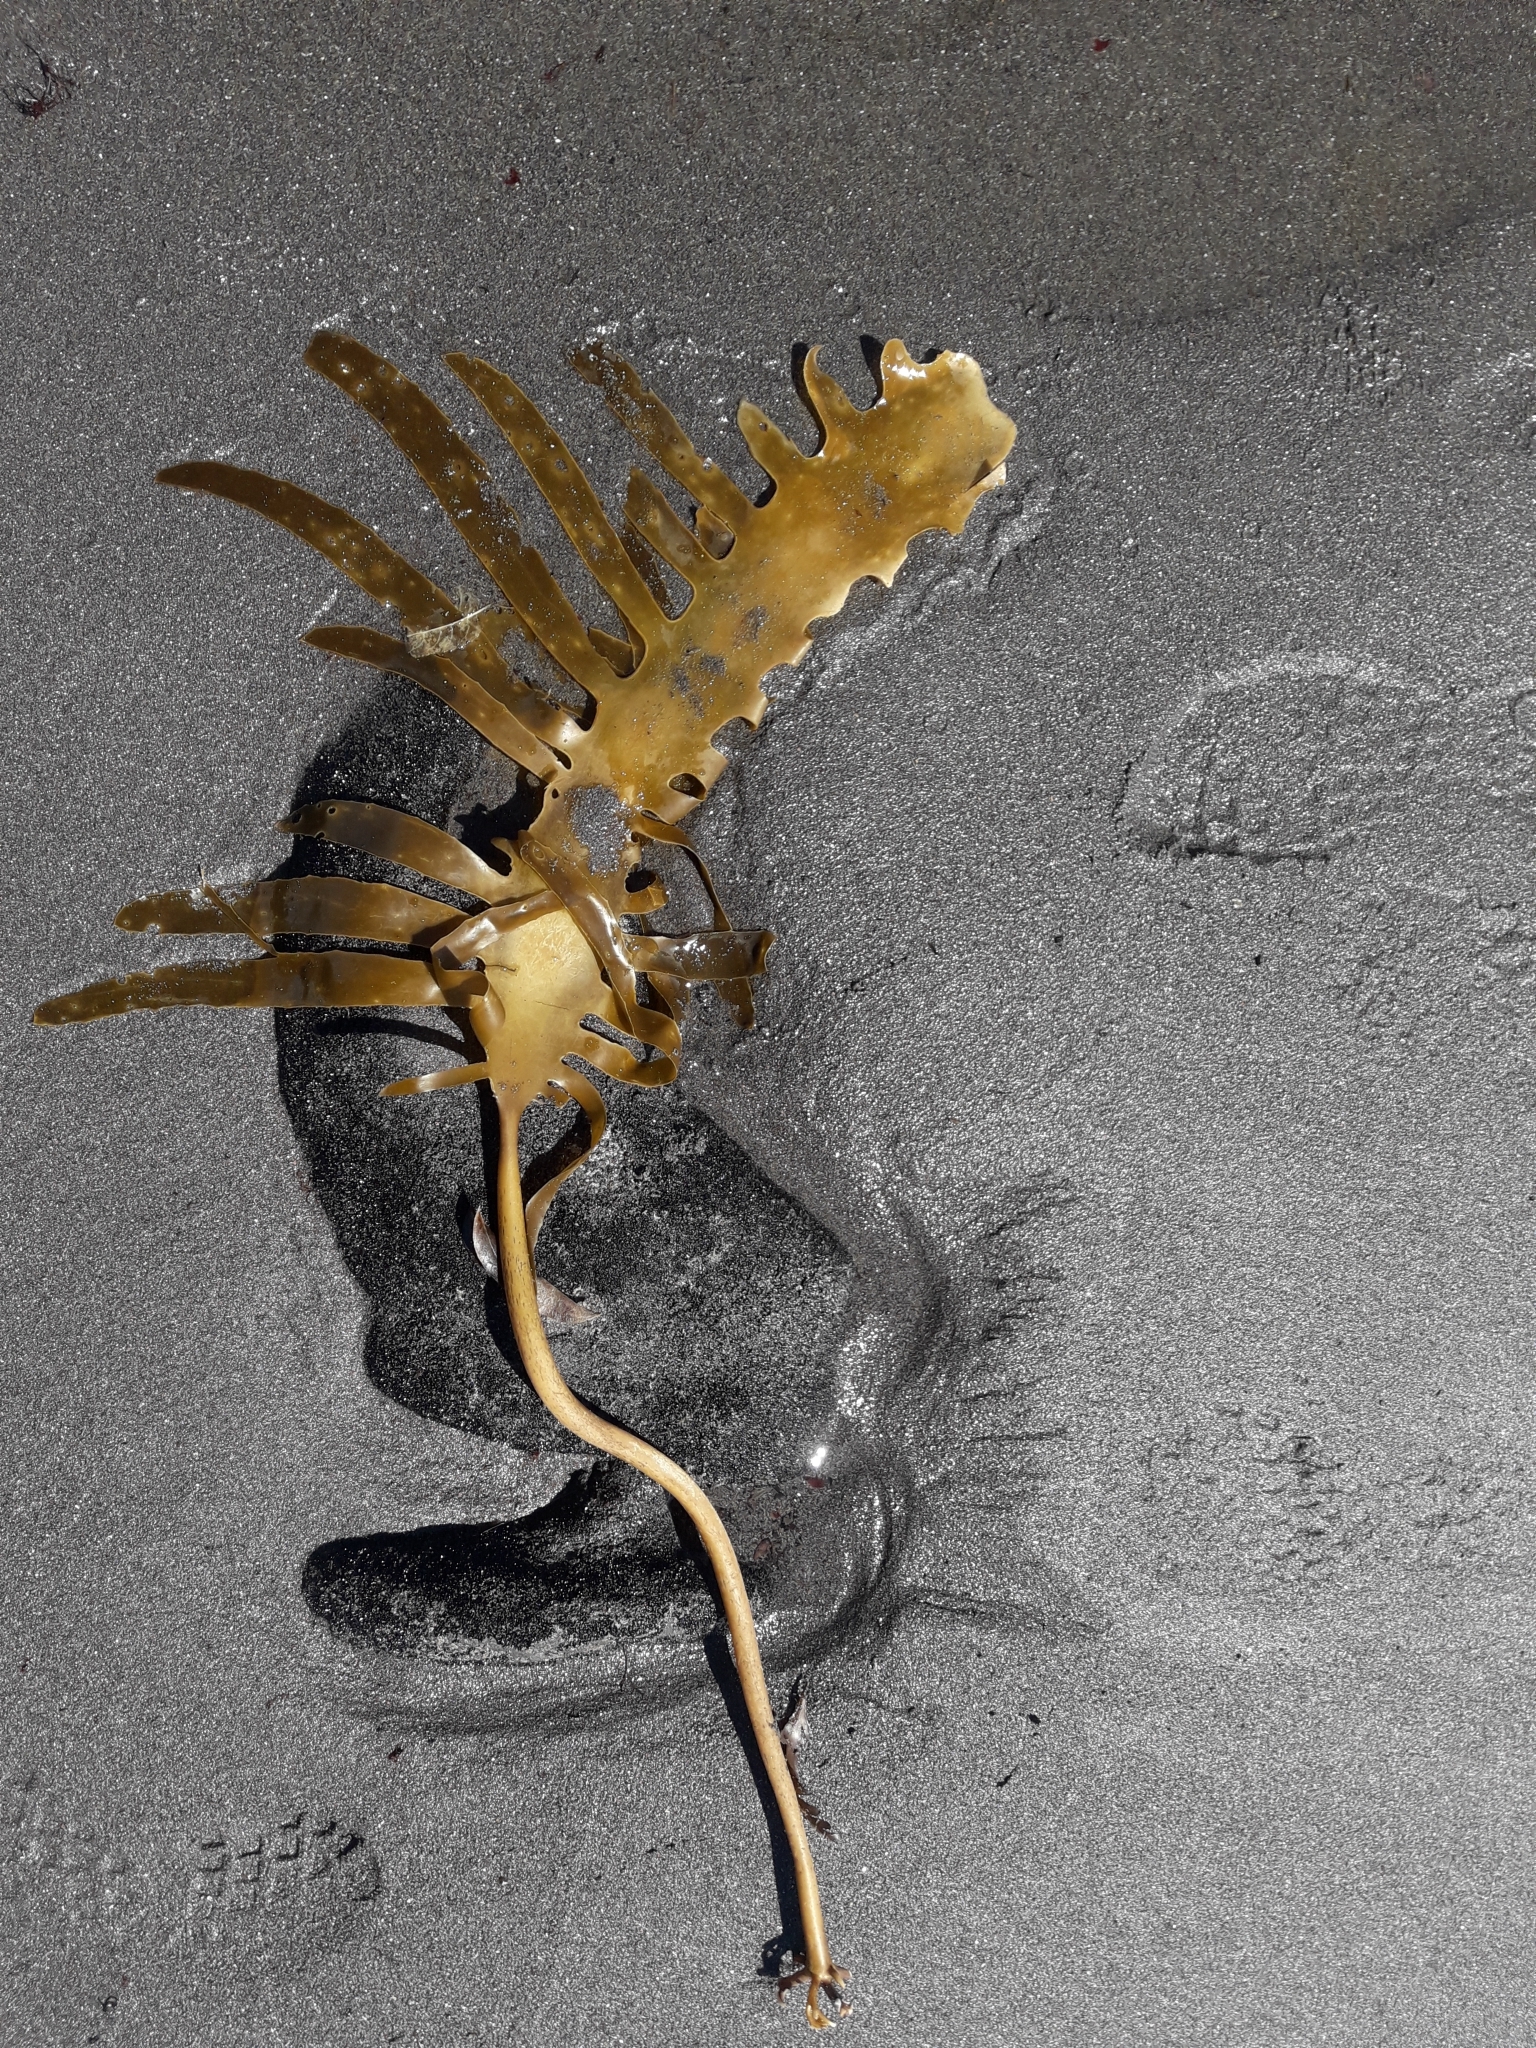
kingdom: Chromista
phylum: Ochrophyta
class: Phaeophyceae
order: Laminariales
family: Lessoniaceae
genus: Ecklonia
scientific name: Ecklonia radiata
